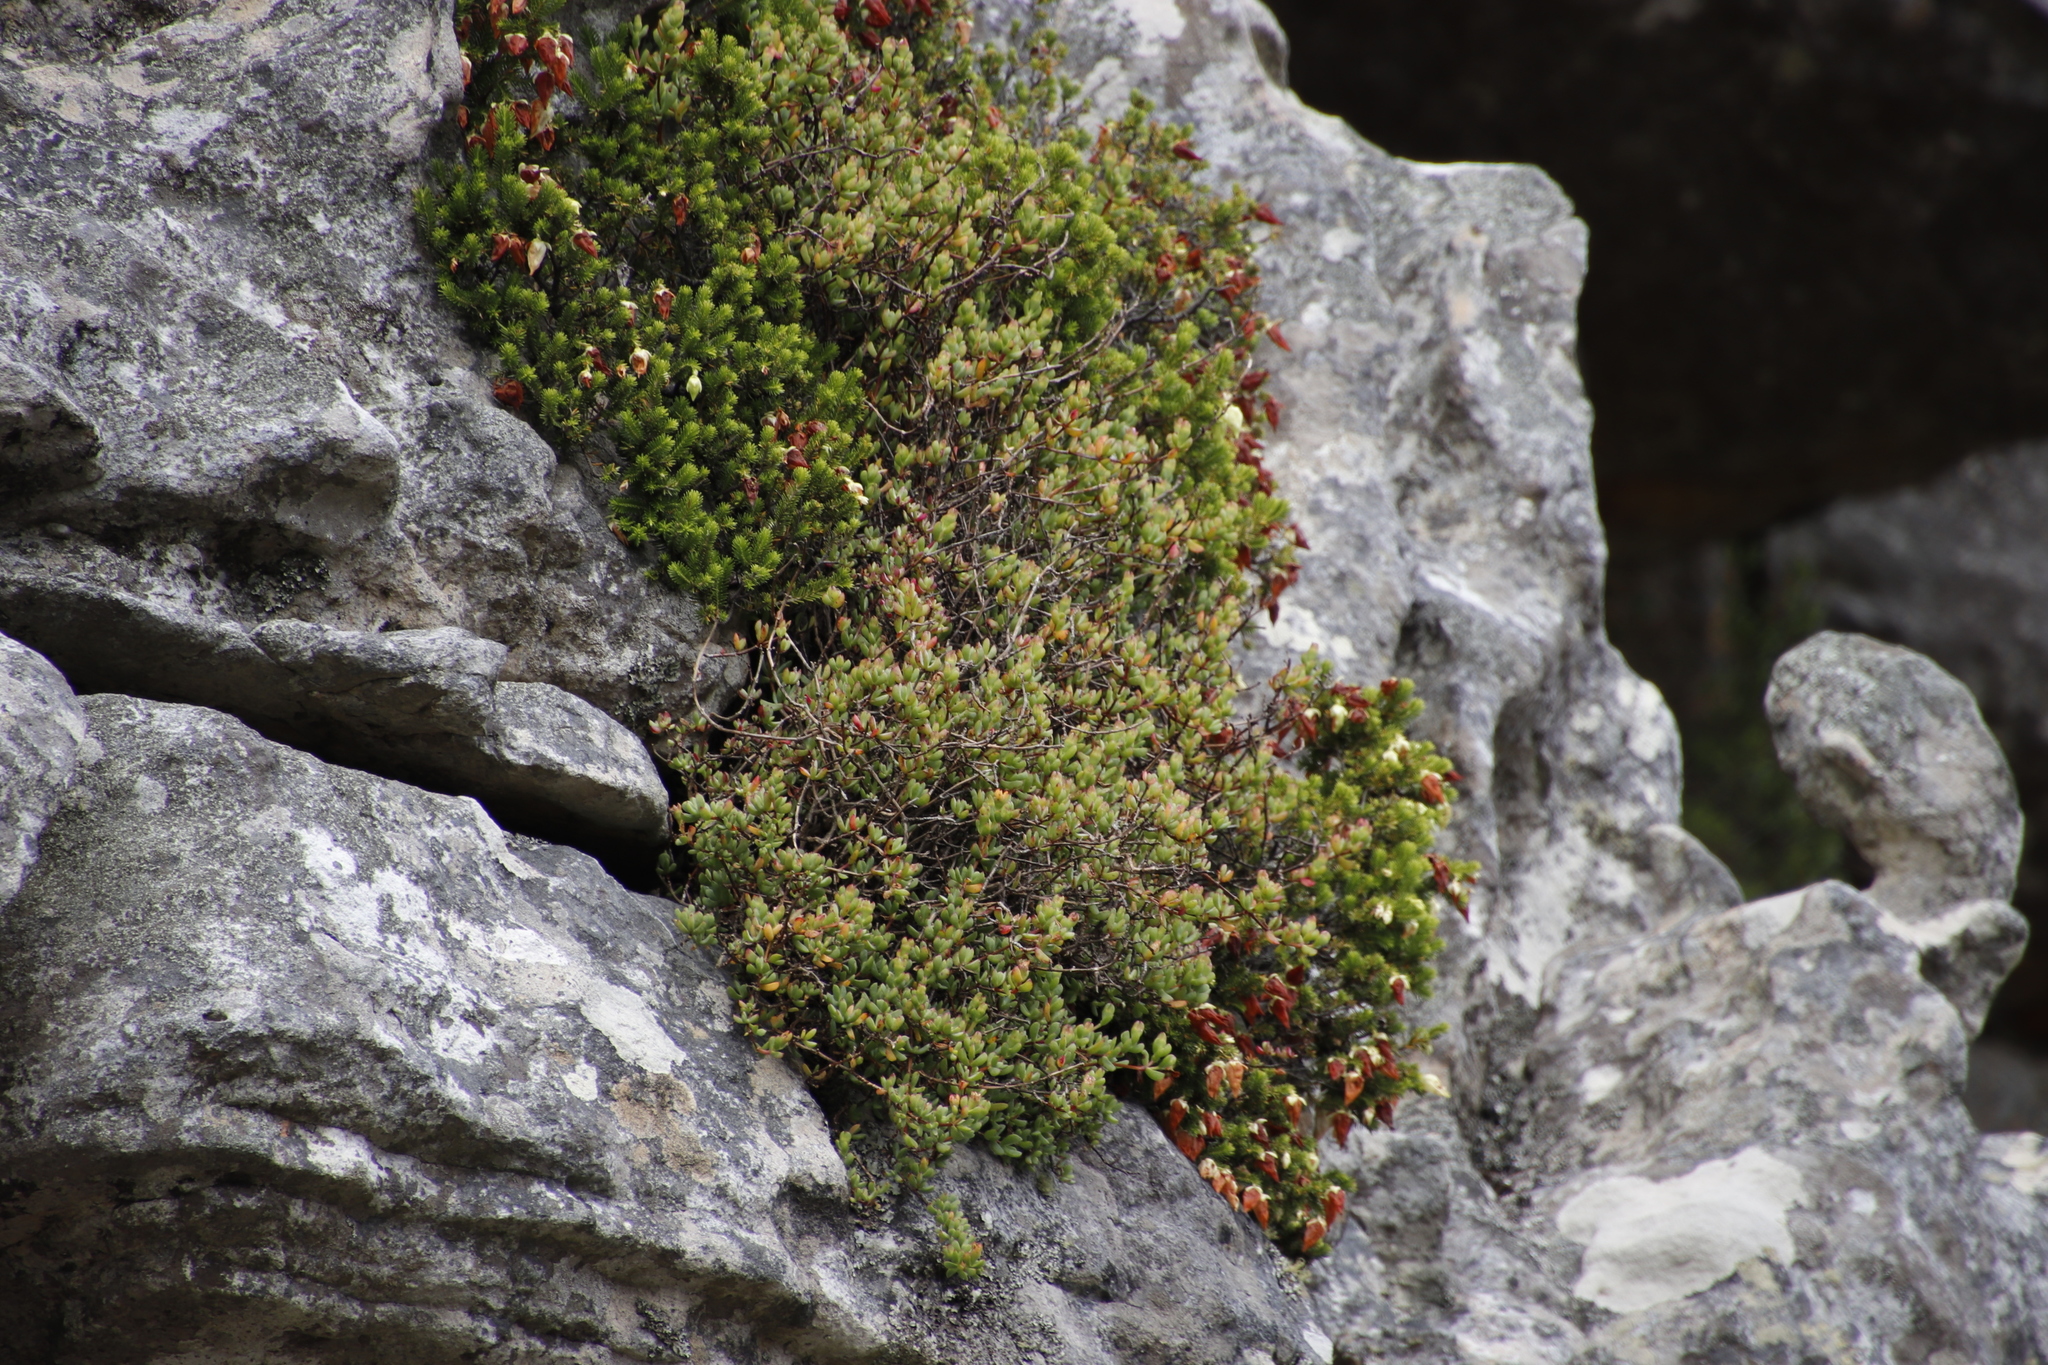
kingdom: Plantae
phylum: Tracheophyta
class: Magnoliopsida
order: Ericales
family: Ericaceae
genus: Erica
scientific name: Erica halicacaba
